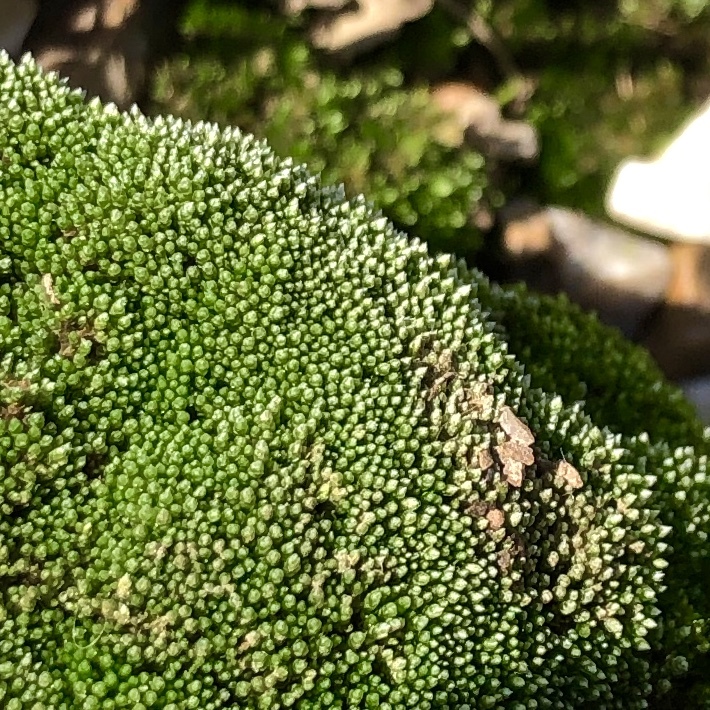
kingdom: Plantae
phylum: Bryophyta
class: Bryopsida
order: Bryales
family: Bryaceae
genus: Bryum
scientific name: Bryum argenteum
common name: Silver-moss
